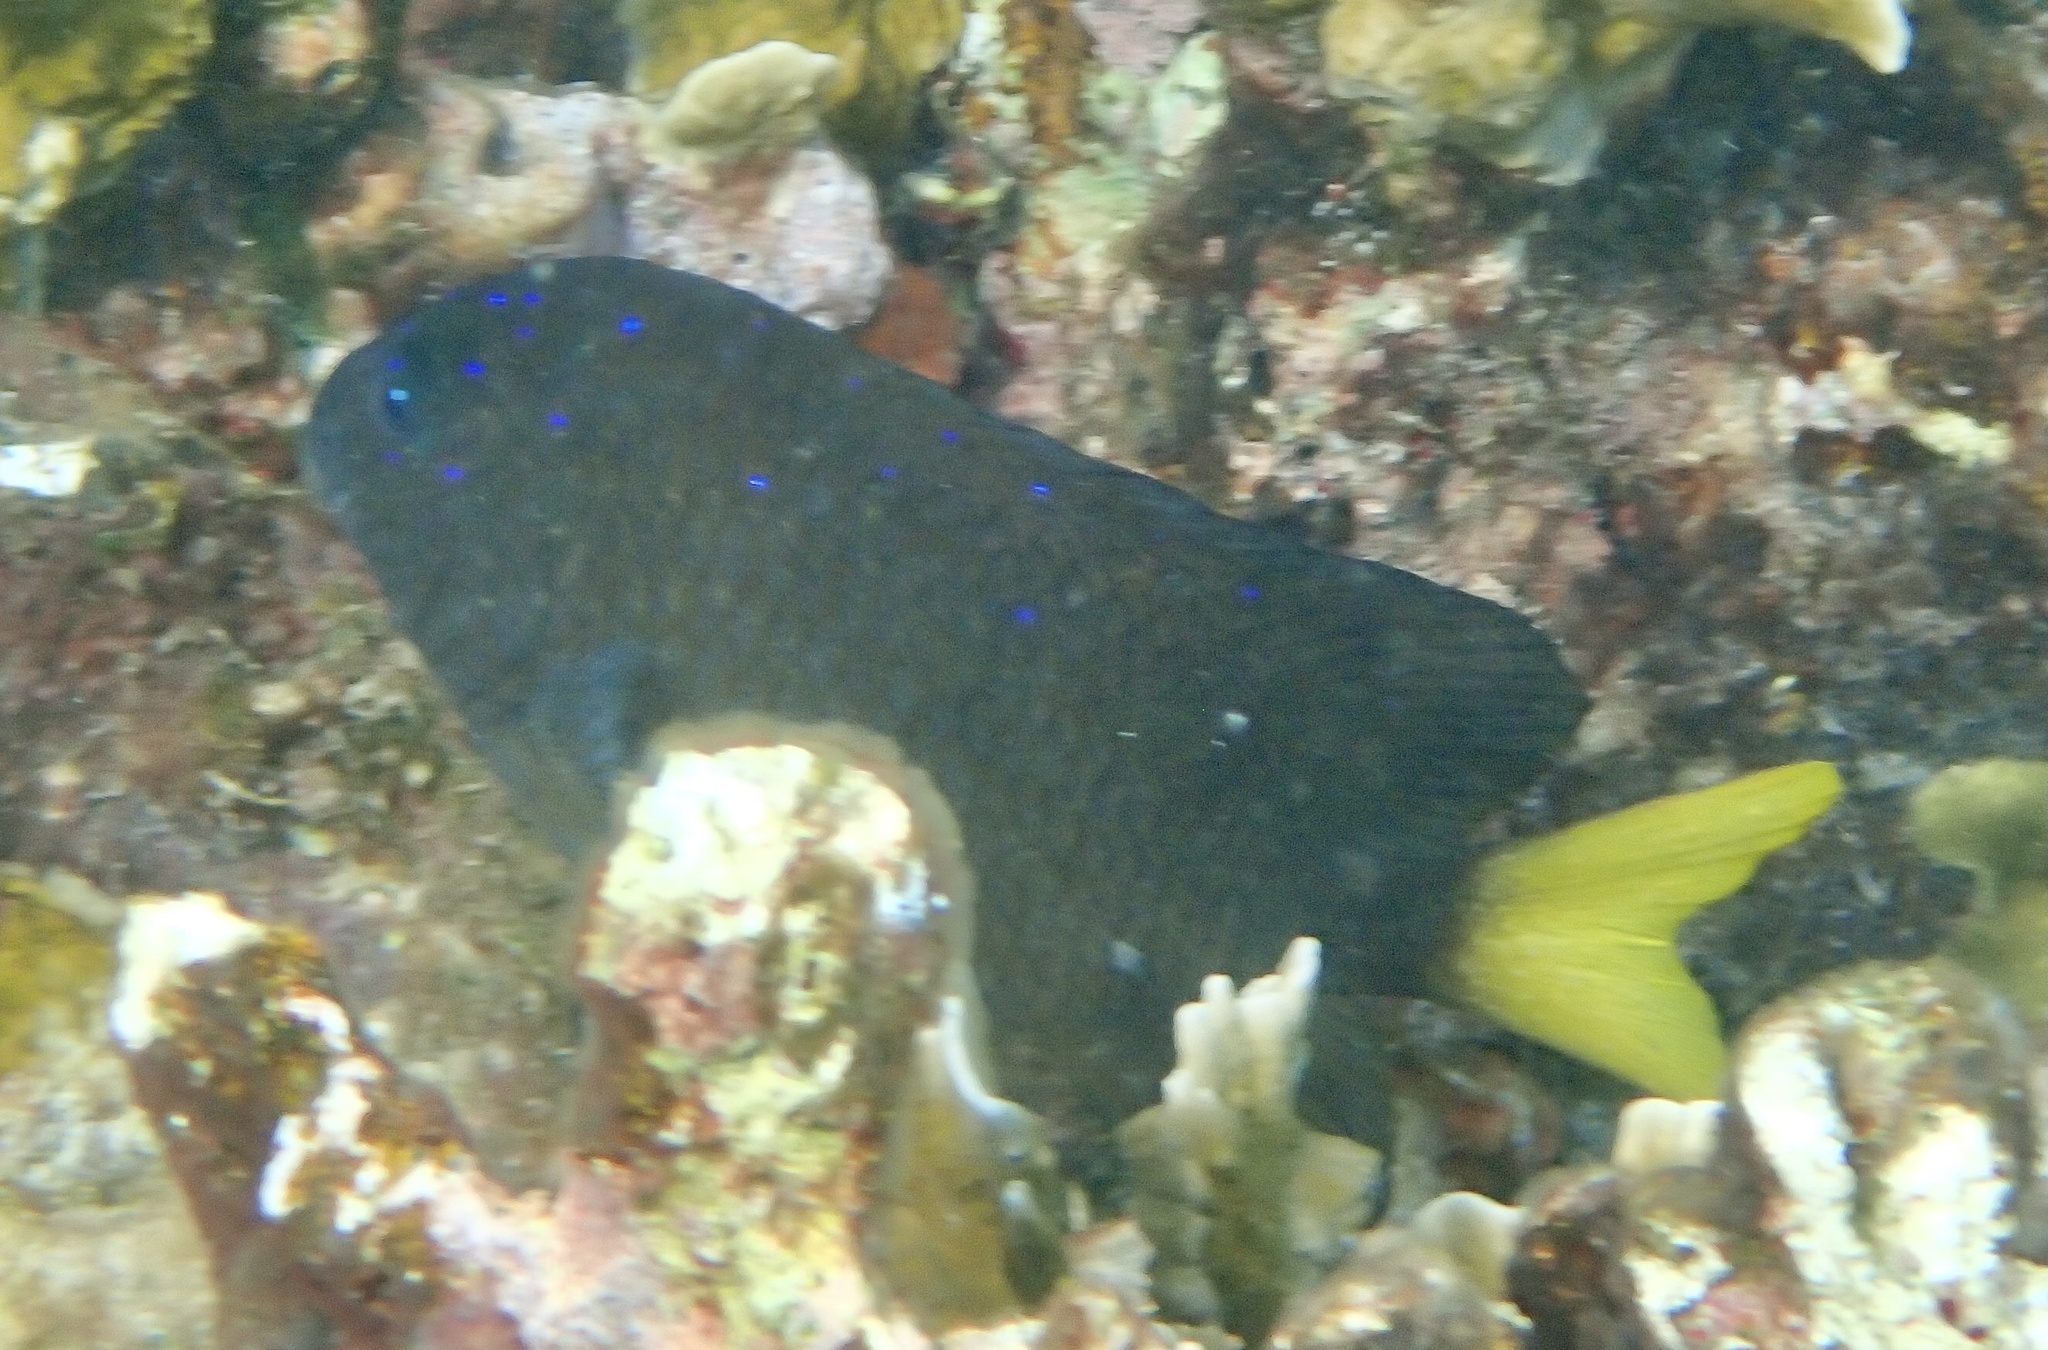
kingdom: Animalia
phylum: Chordata
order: Perciformes
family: Pomacentridae
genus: Microspathodon
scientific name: Microspathodon chrysurus
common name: Yellowtail damselfish
